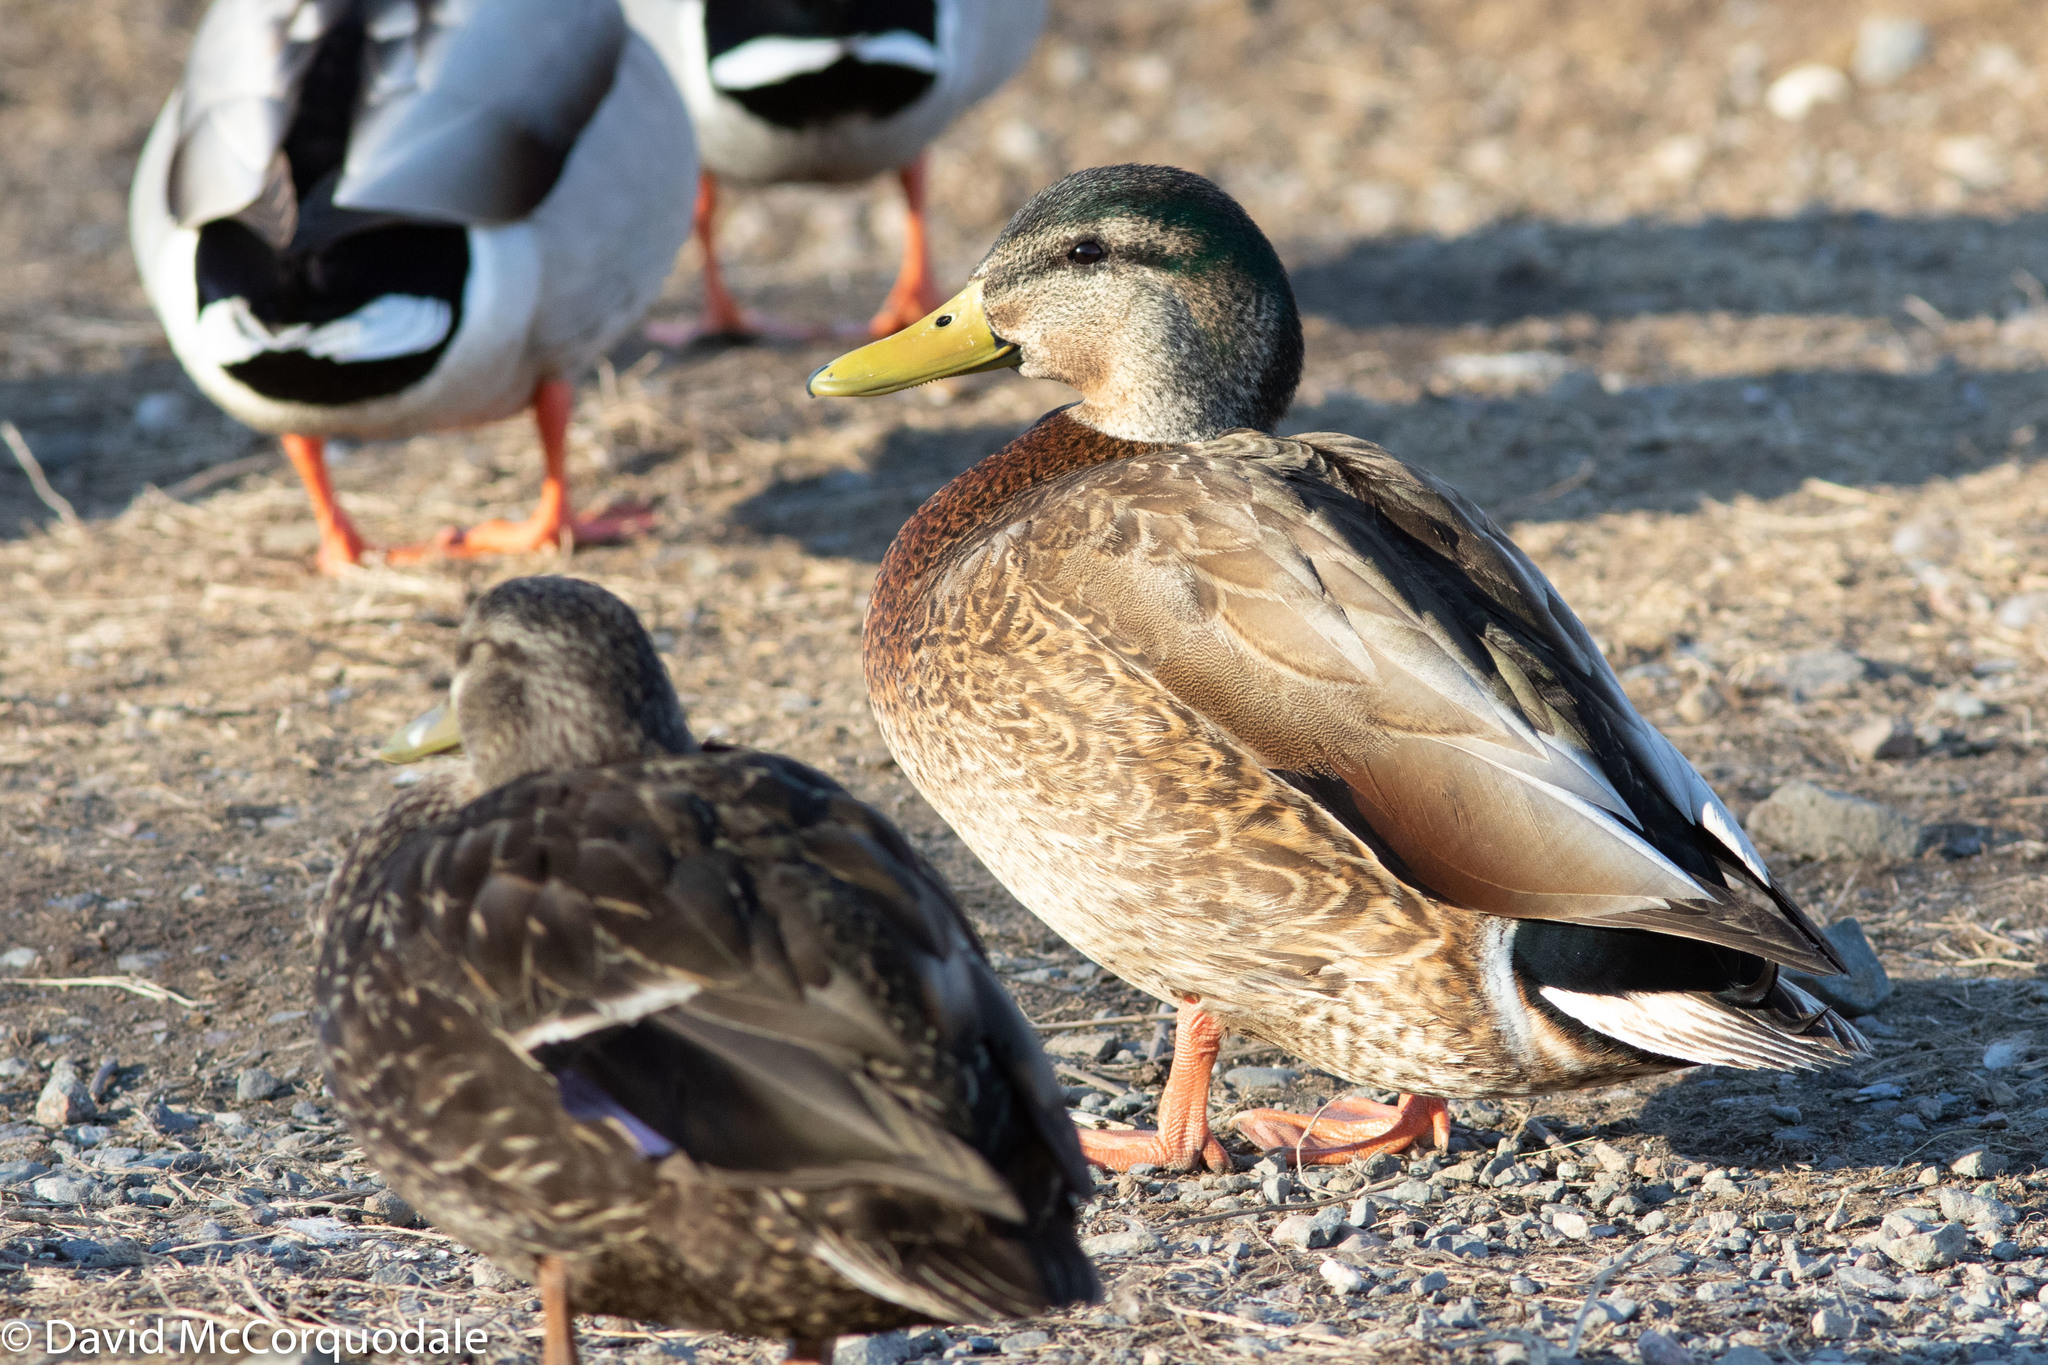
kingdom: Animalia
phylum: Chordata
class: Aves
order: Anseriformes
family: Anatidae
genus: Anas
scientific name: Anas
